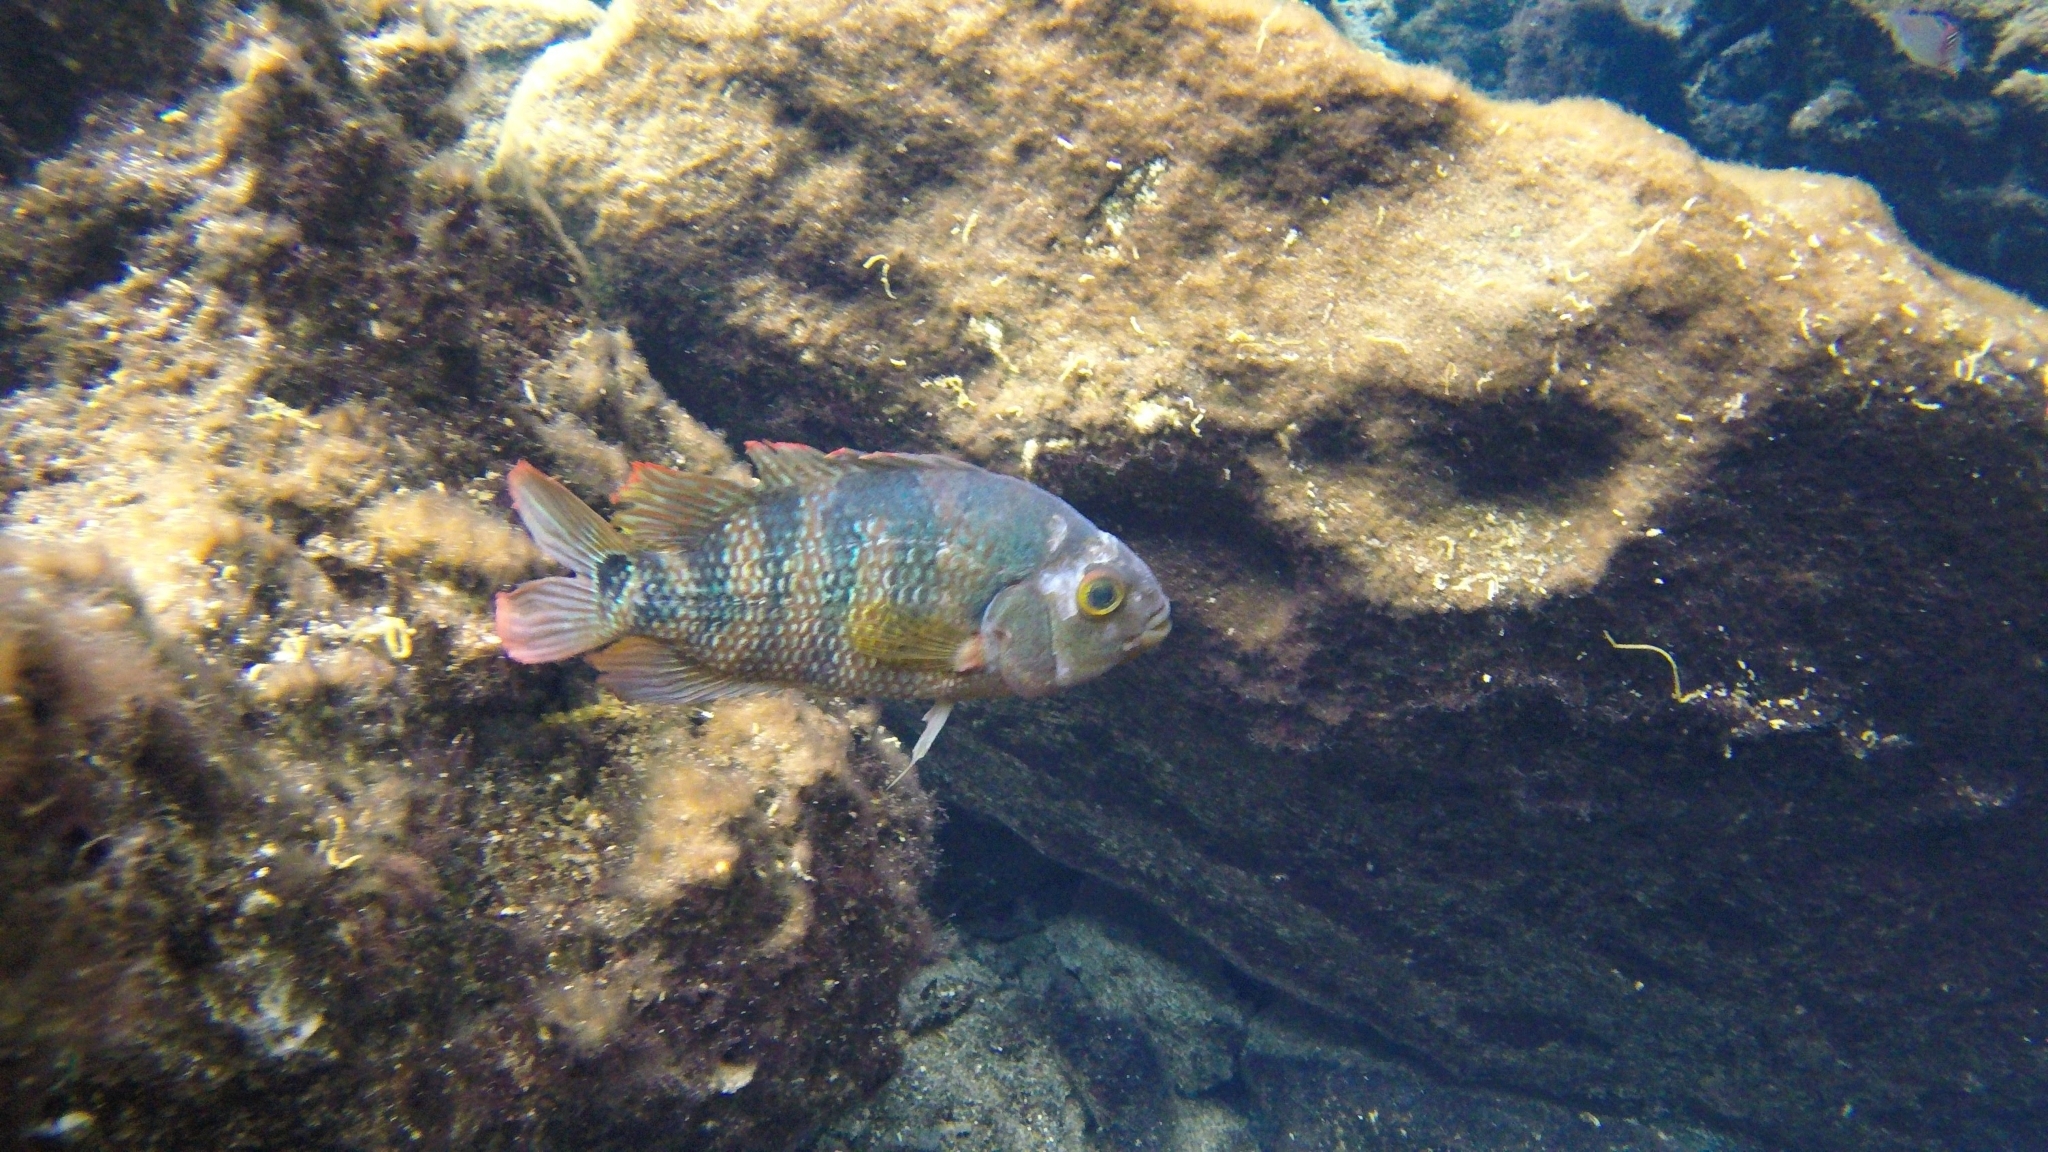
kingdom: Animalia
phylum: Chordata
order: Perciformes
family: Cichlidae
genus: Mayaheros
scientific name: Mayaheros urophthalmus
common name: Mayan cichlid
